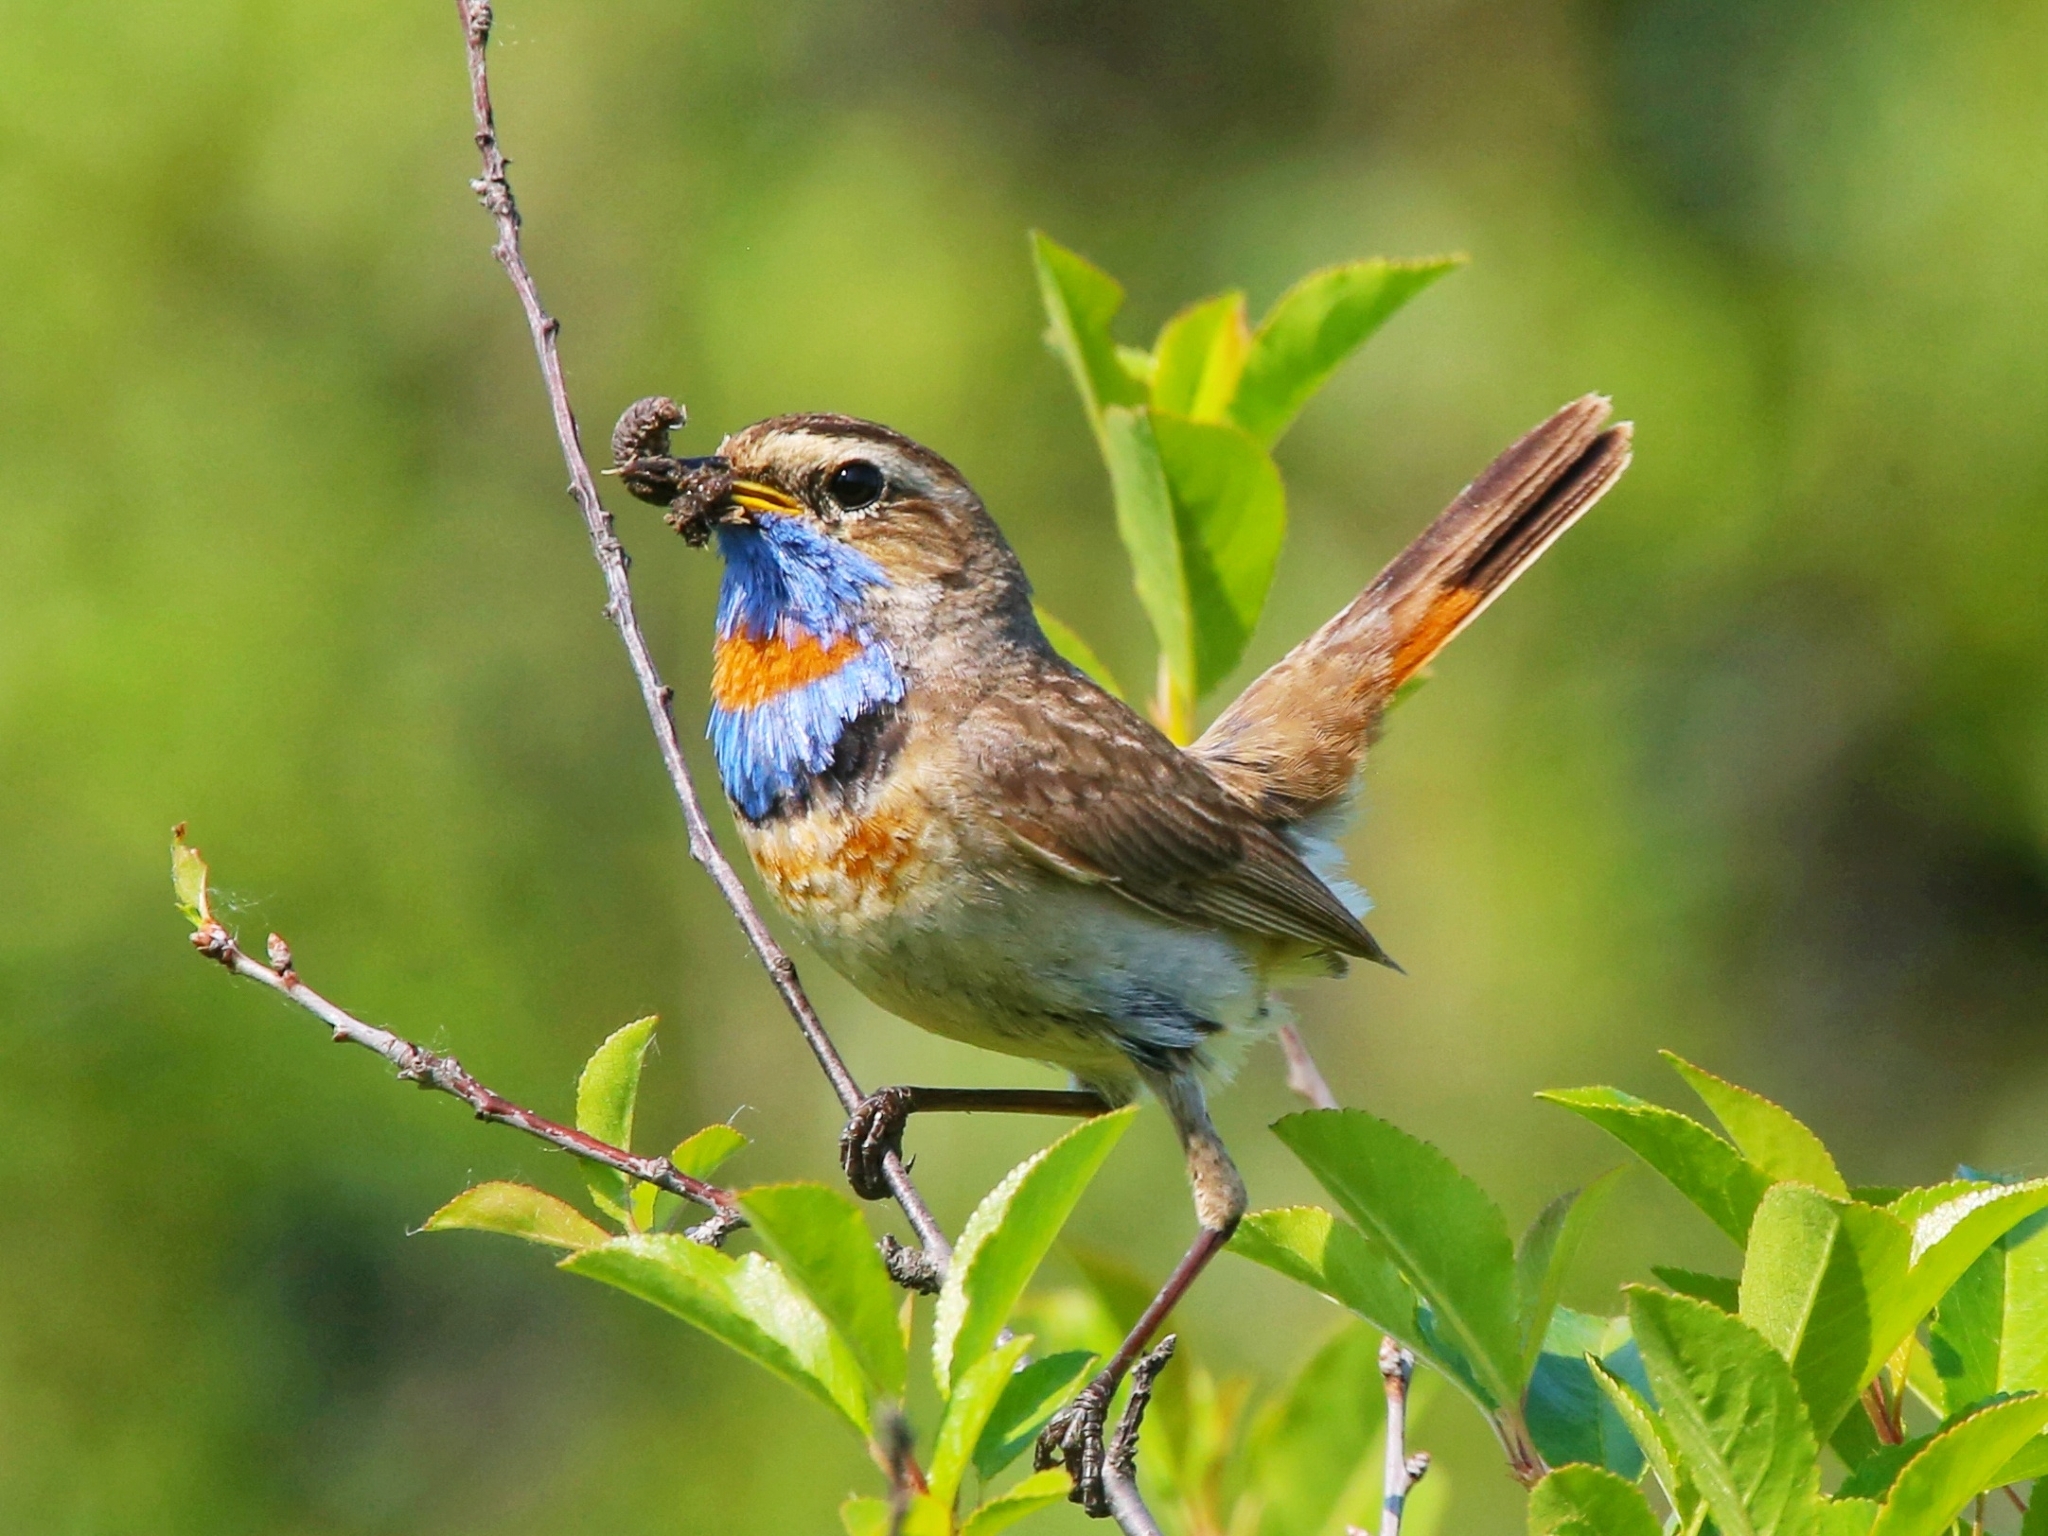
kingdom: Animalia
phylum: Chordata
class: Aves
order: Passeriformes
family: Muscicapidae
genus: Luscinia
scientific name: Luscinia svecica
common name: Bluethroat
